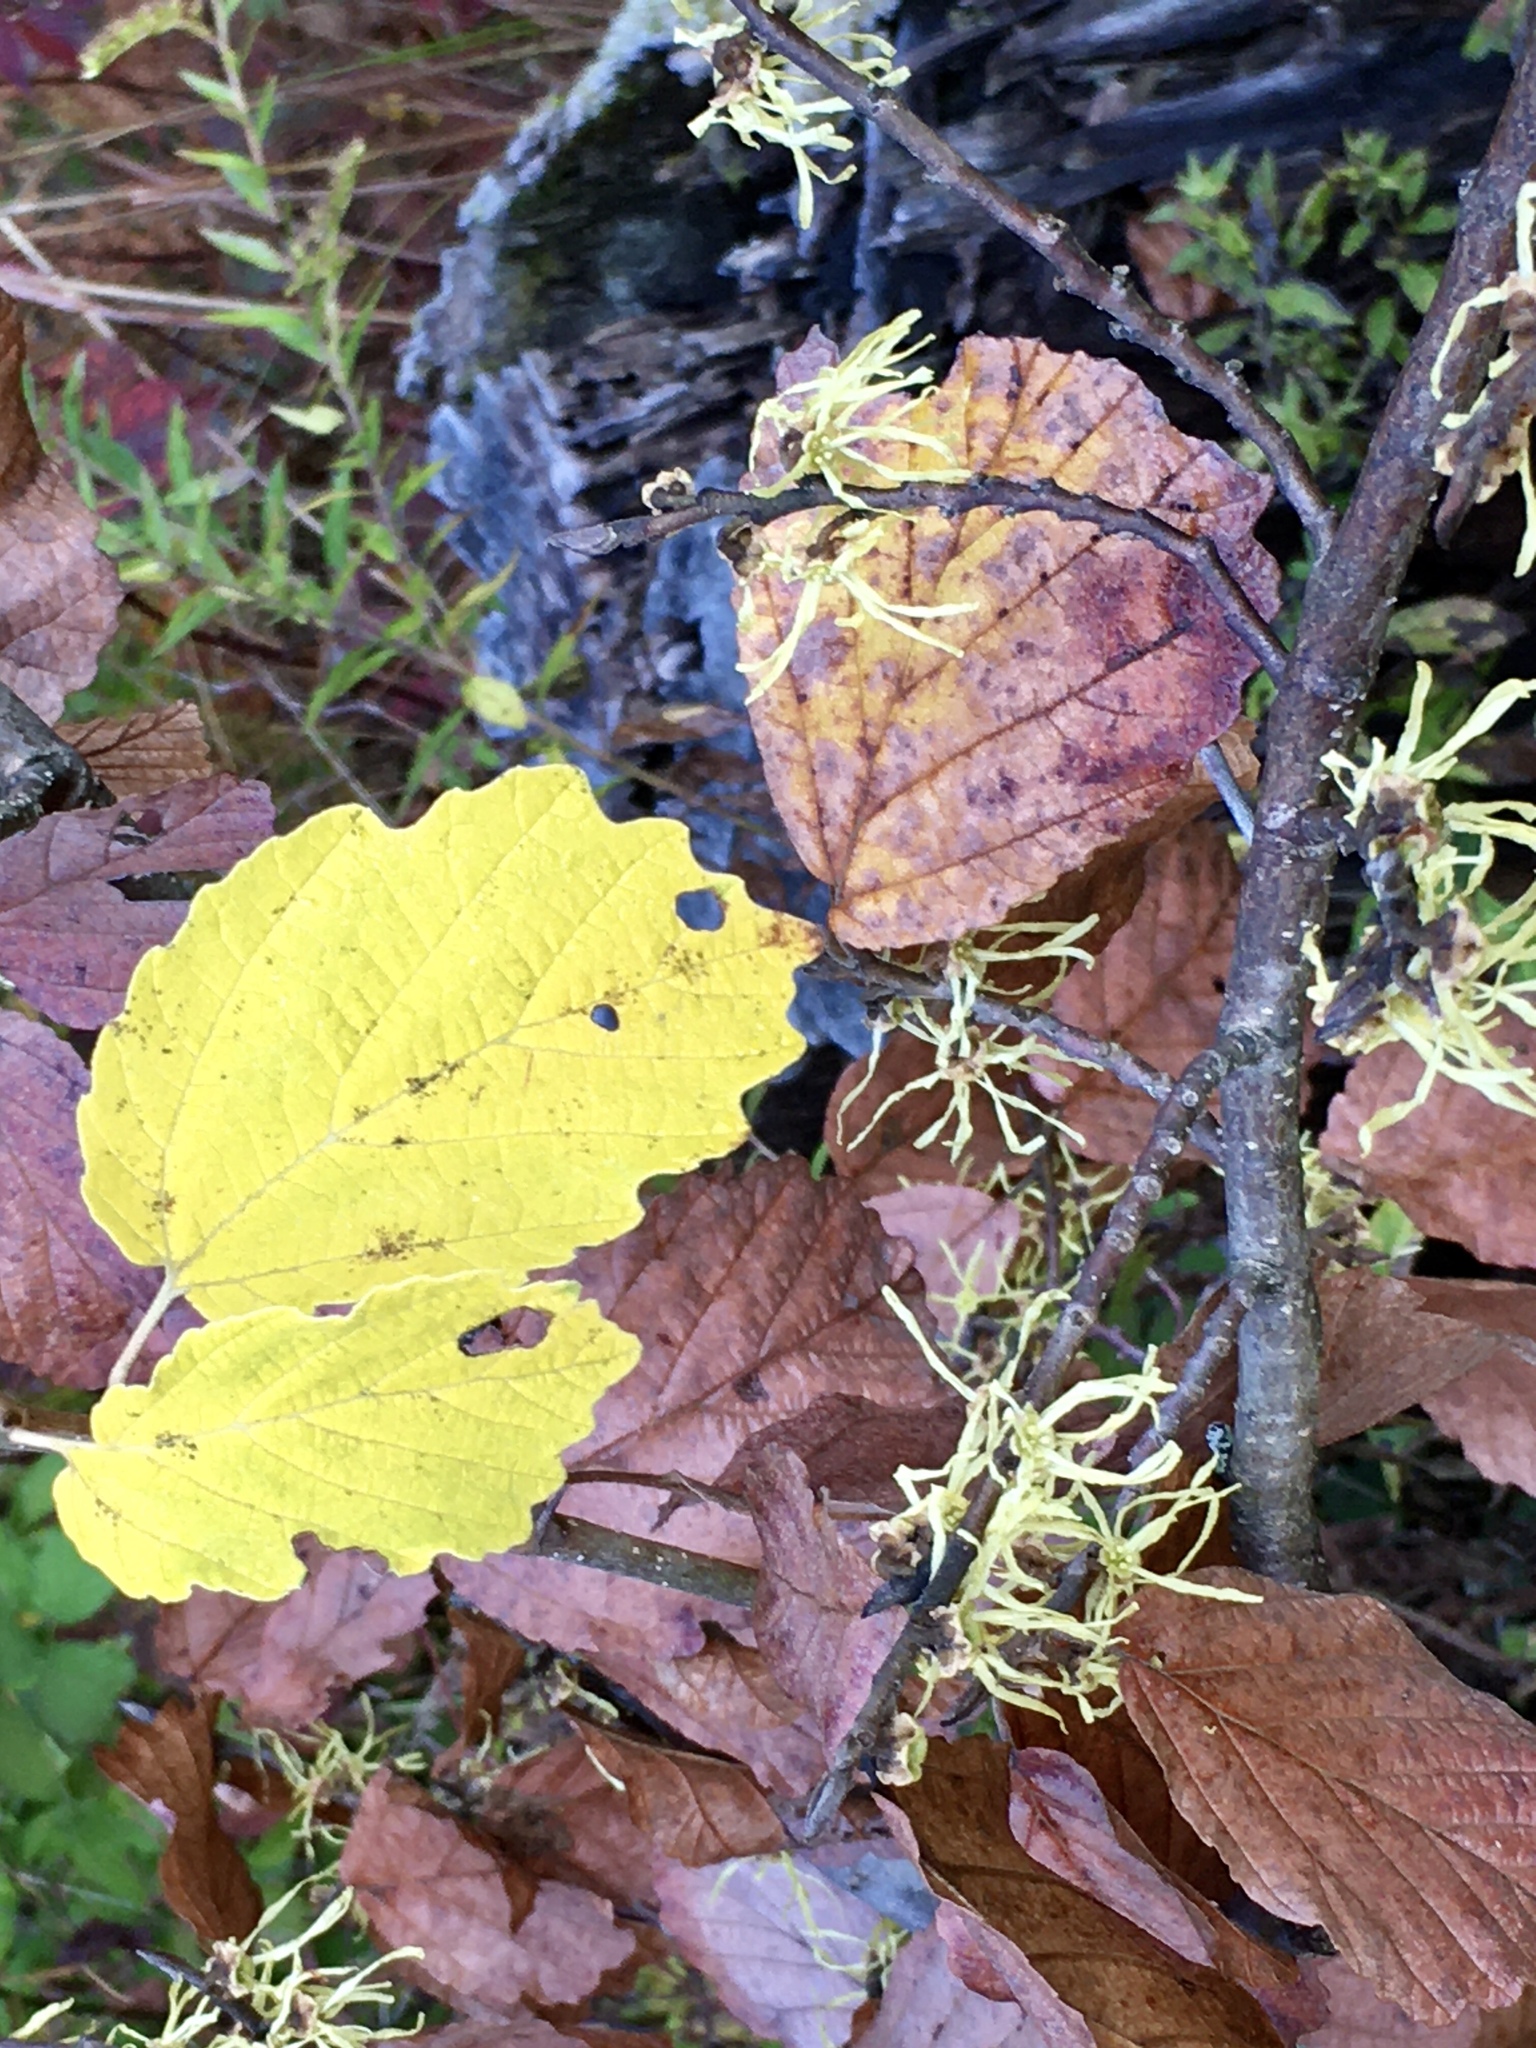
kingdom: Plantae
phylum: Tracheophyta
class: Magnoliopsida
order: Saxifragales
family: Hamamelidaceae
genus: Hamamelis
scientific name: Hamamelis virginiana
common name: Witch-hazel
